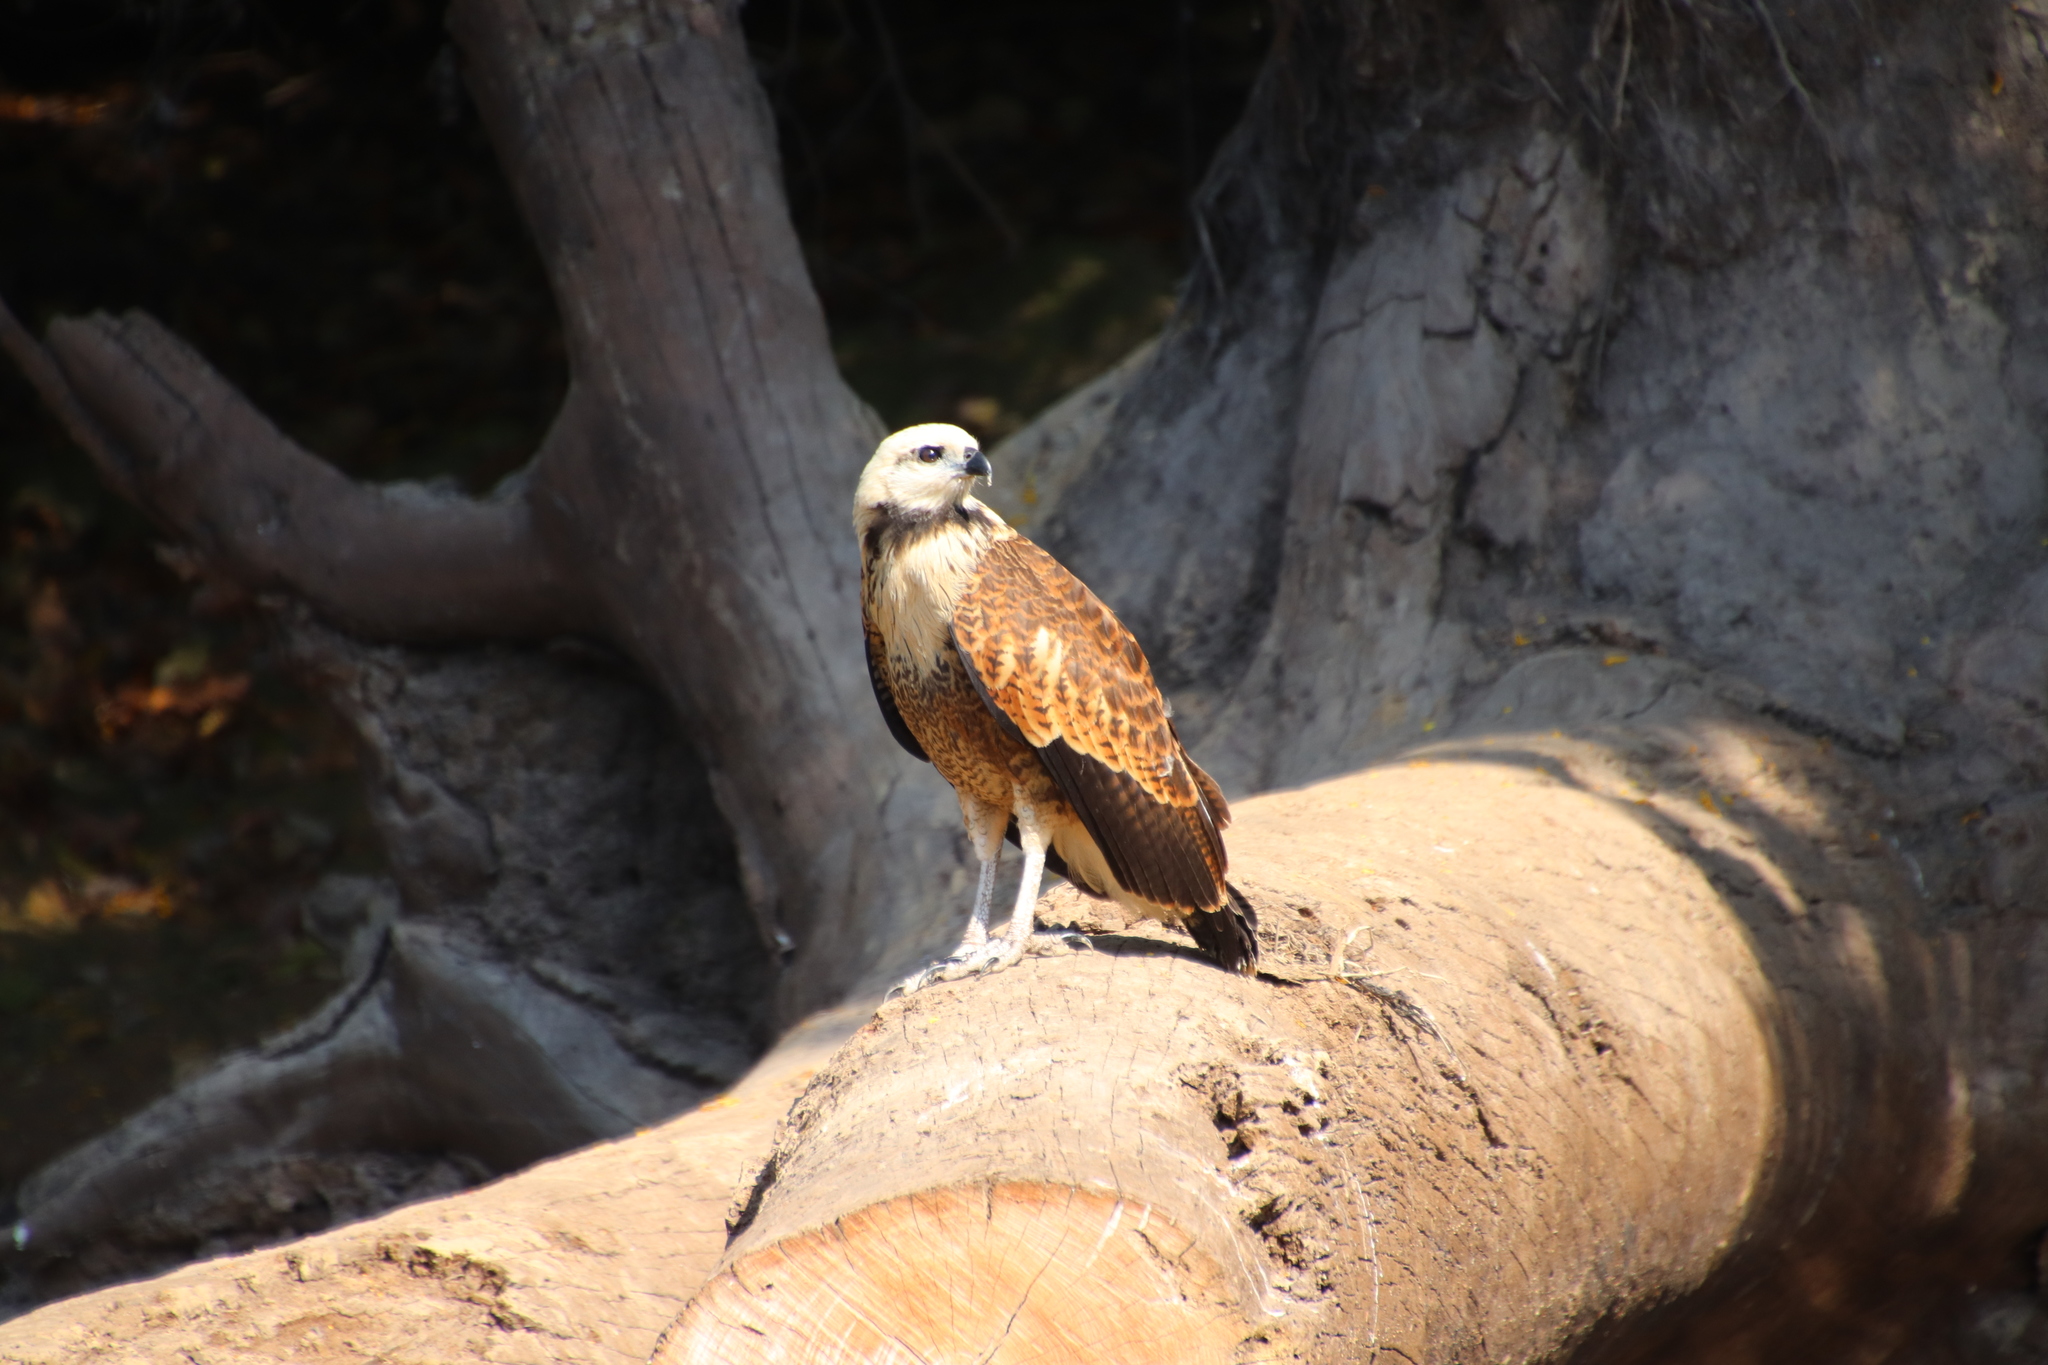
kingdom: Animalia
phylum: Chordata
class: Aves
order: Accipitriformes
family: Accipitridae
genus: Busarellus
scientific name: Busarellus nigricollis
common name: Black-collared hawk
